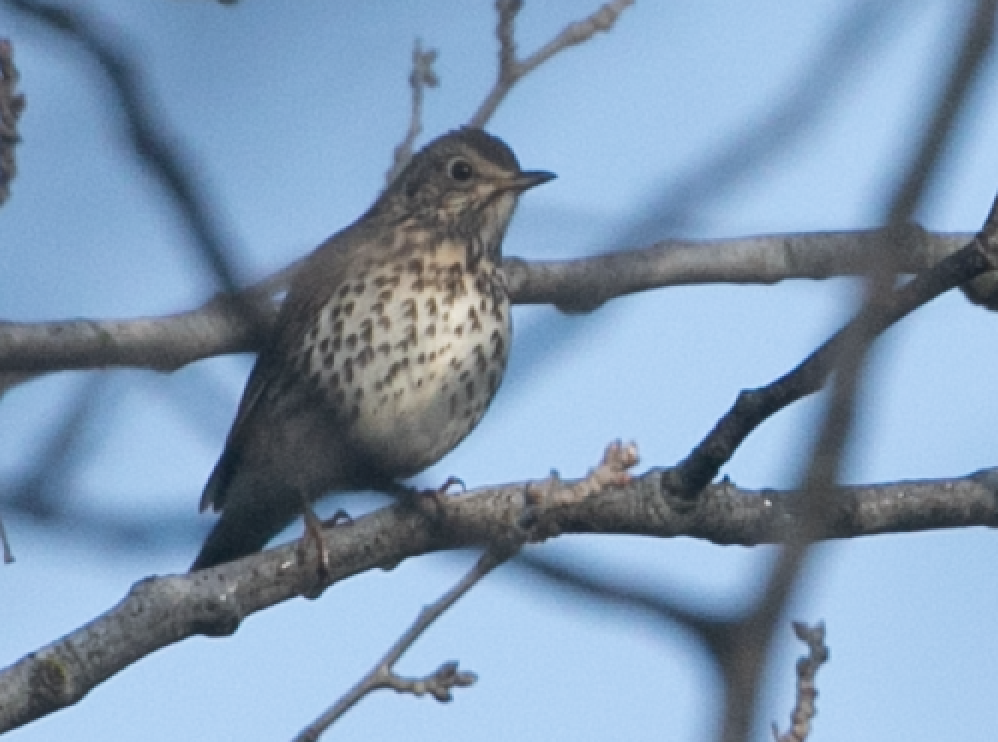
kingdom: Animalia
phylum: Chordata
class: Aves
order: Passeriformes
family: Turdidae
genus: Turdus
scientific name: Turdus philomelos
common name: Song thrush
